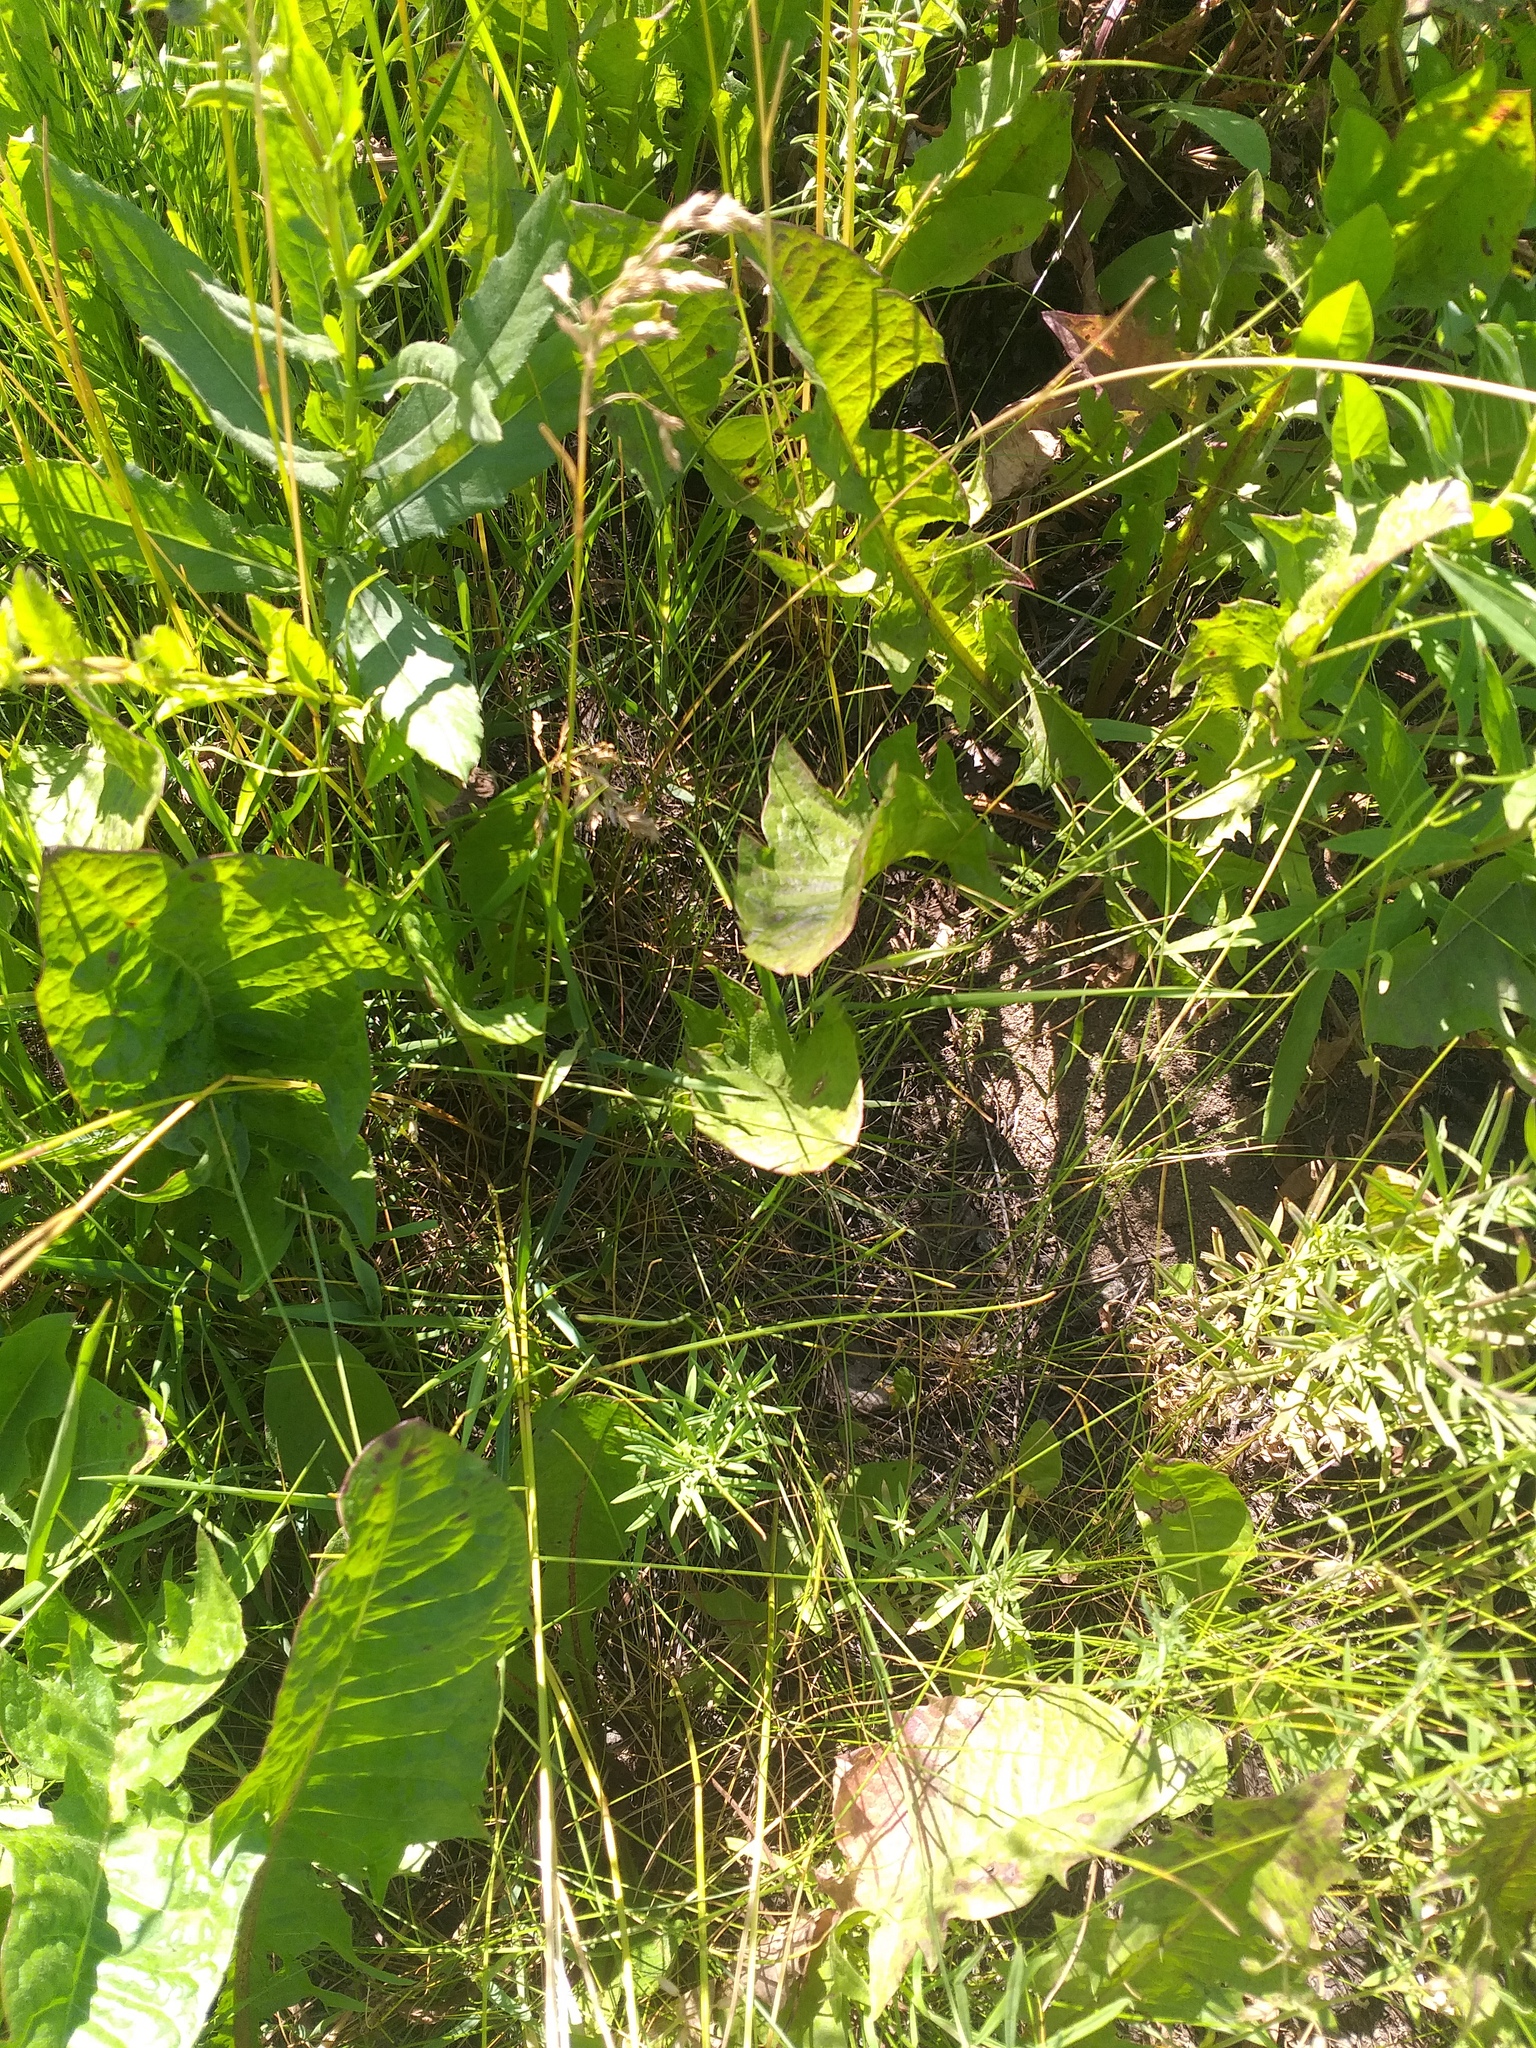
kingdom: Plantae
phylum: Tracheophyta
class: Liliopsida
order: Poales
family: Poaceae
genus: Poa
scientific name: Poa angustifolia
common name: Narrow-leaved meadow-grass
